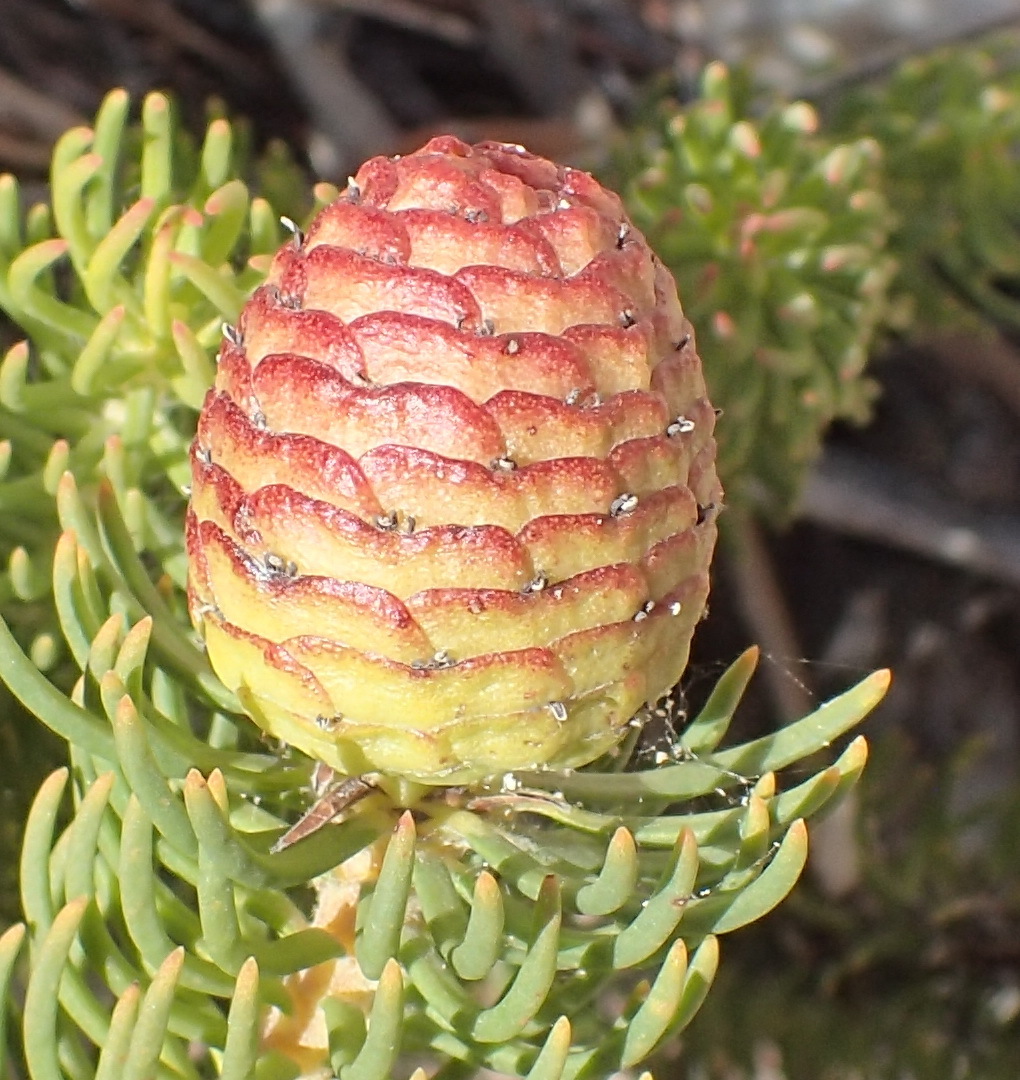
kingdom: Plantae
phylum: Tracheophyta
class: Magnoliopsida
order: Proteales
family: Proteaceae
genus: Leucadendron
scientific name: Leucadendron teretifolium
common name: Needle-leaf conebush
